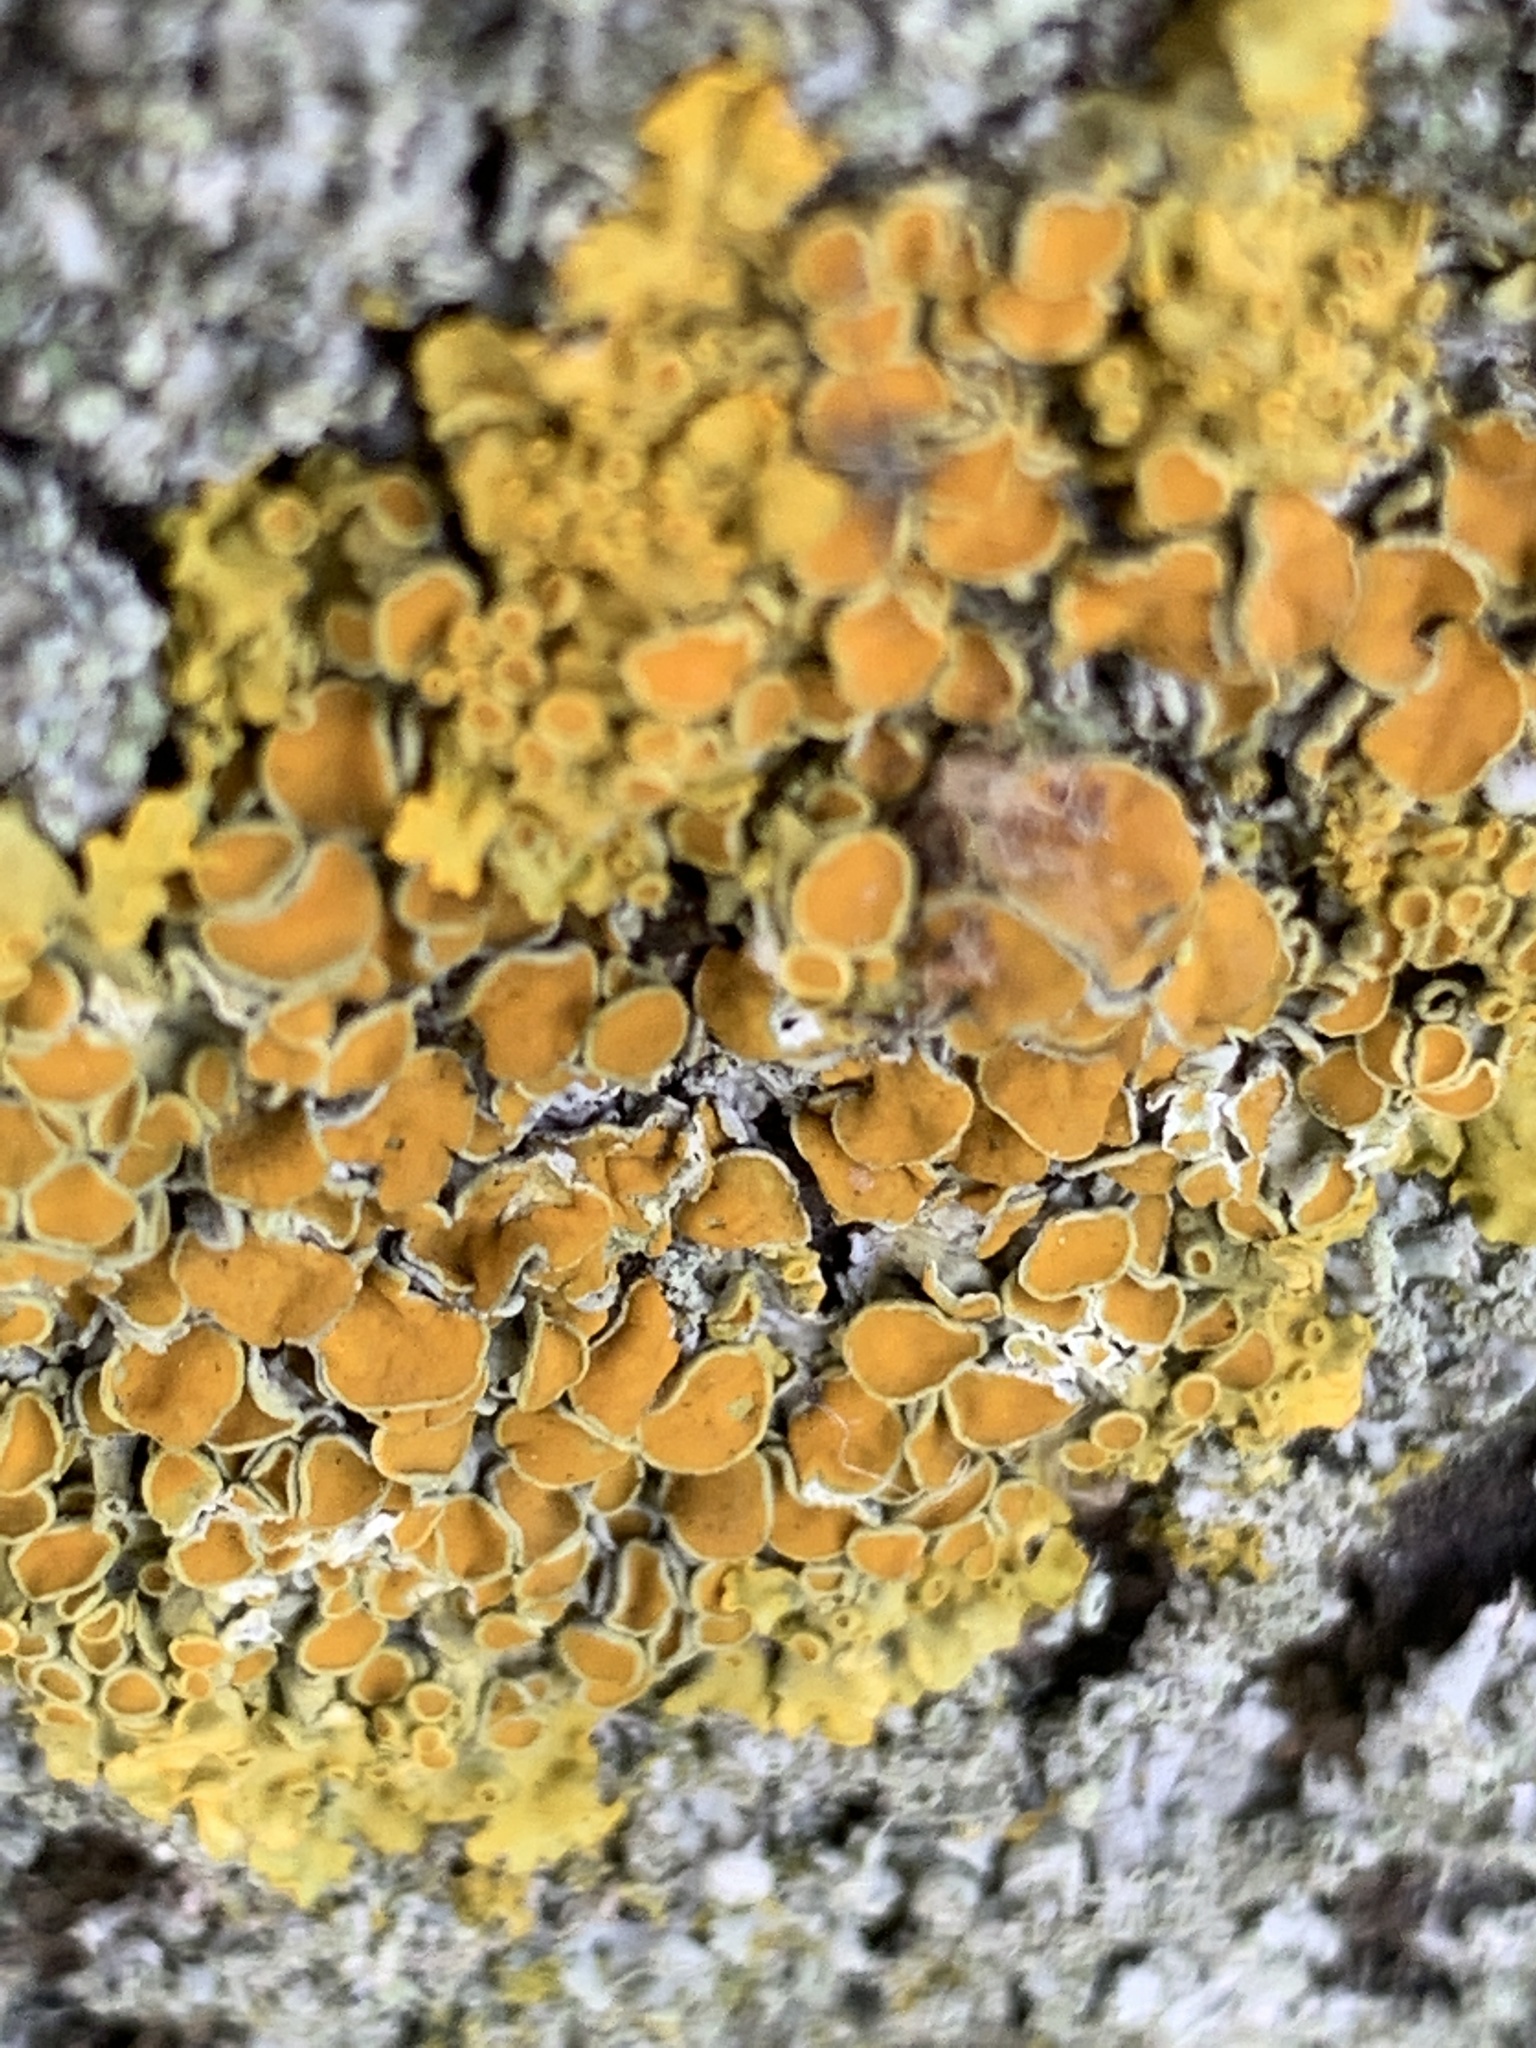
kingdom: Fungi
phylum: Ascomycota
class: Lecanoromycetes
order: Teloschistales
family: Teloschistaceae
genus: Xanthoria
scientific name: Xanthoria parietina
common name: Common orange lichen
